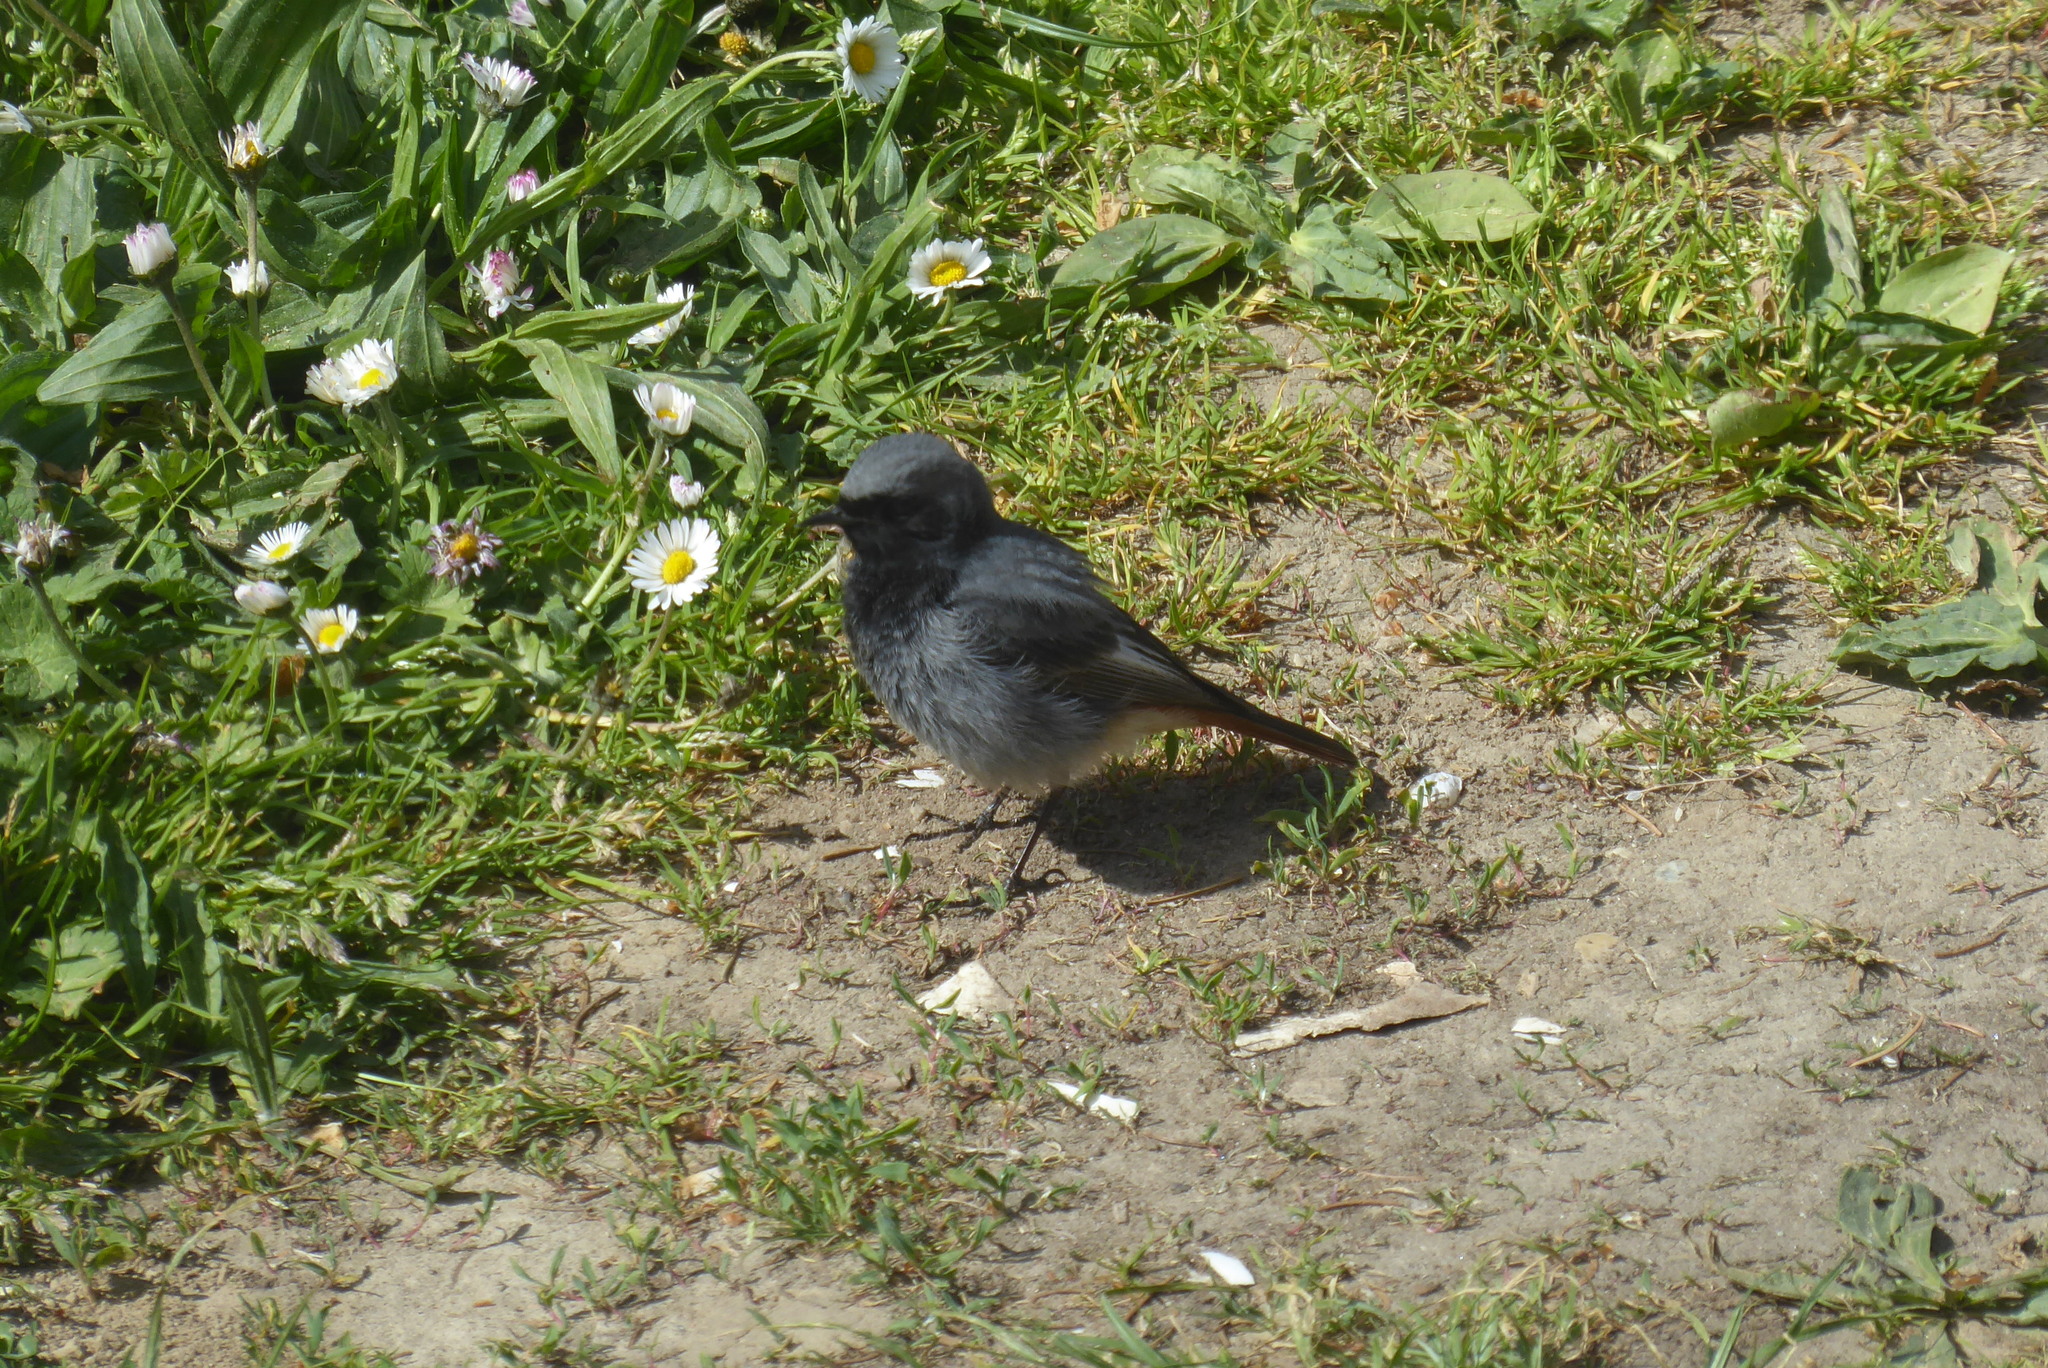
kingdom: Animalia
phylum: Chordata
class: Aves
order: Passeriformes
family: Muscicapidae
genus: Phoenicurus
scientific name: Phoenicurus ochruros
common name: Black redstart
